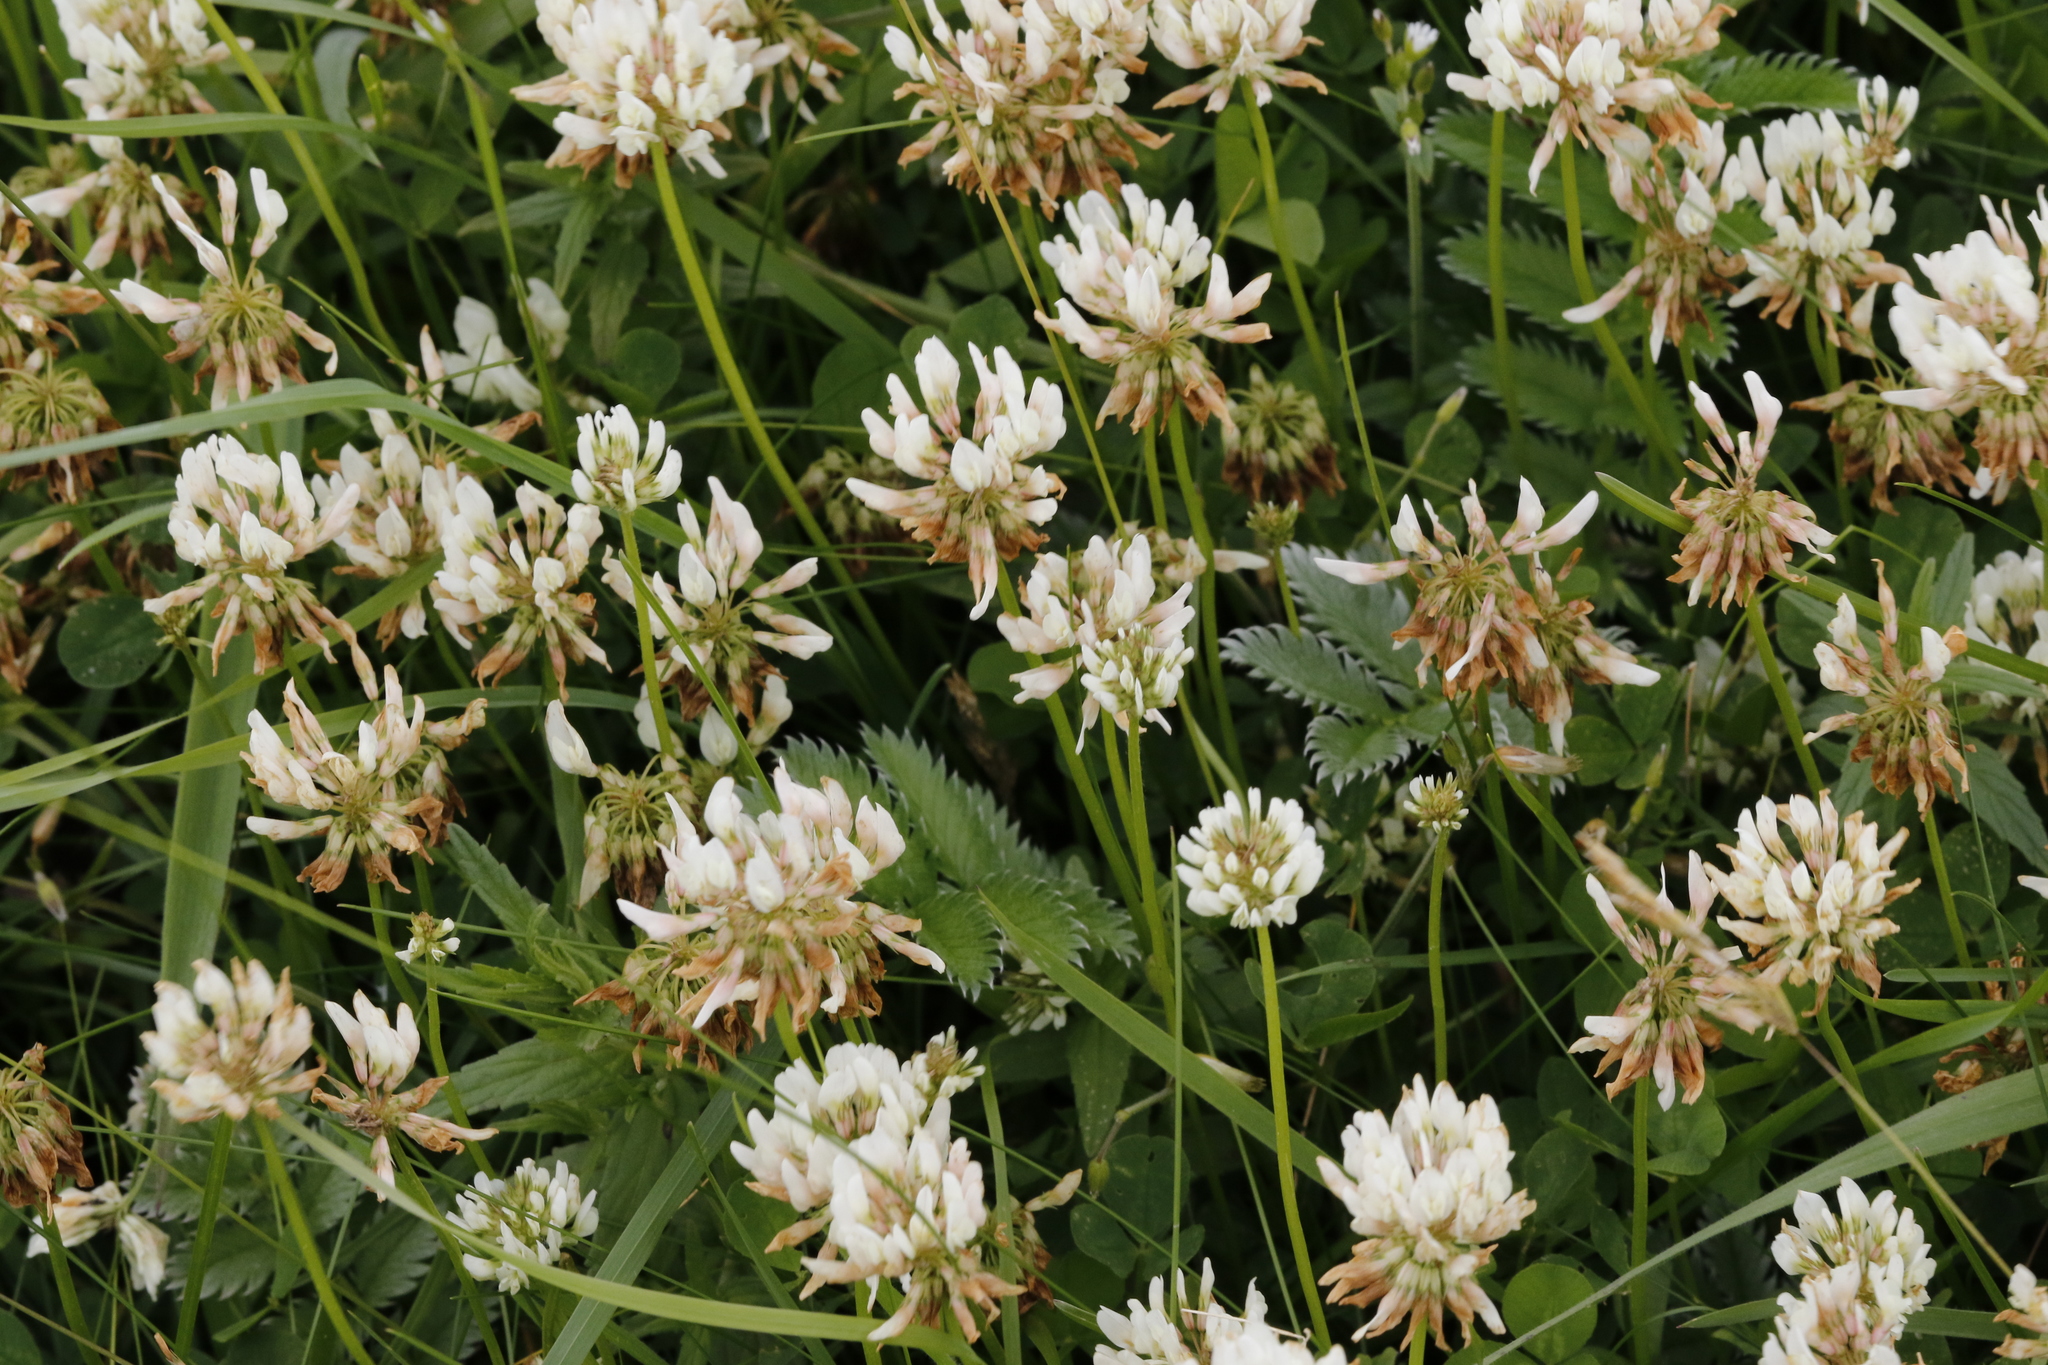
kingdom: Plantae
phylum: Tracheophyta
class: Magnoliopsida
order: Fabales
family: Fabaceae
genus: Trifolium
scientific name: Trifolium repens
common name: White clover
